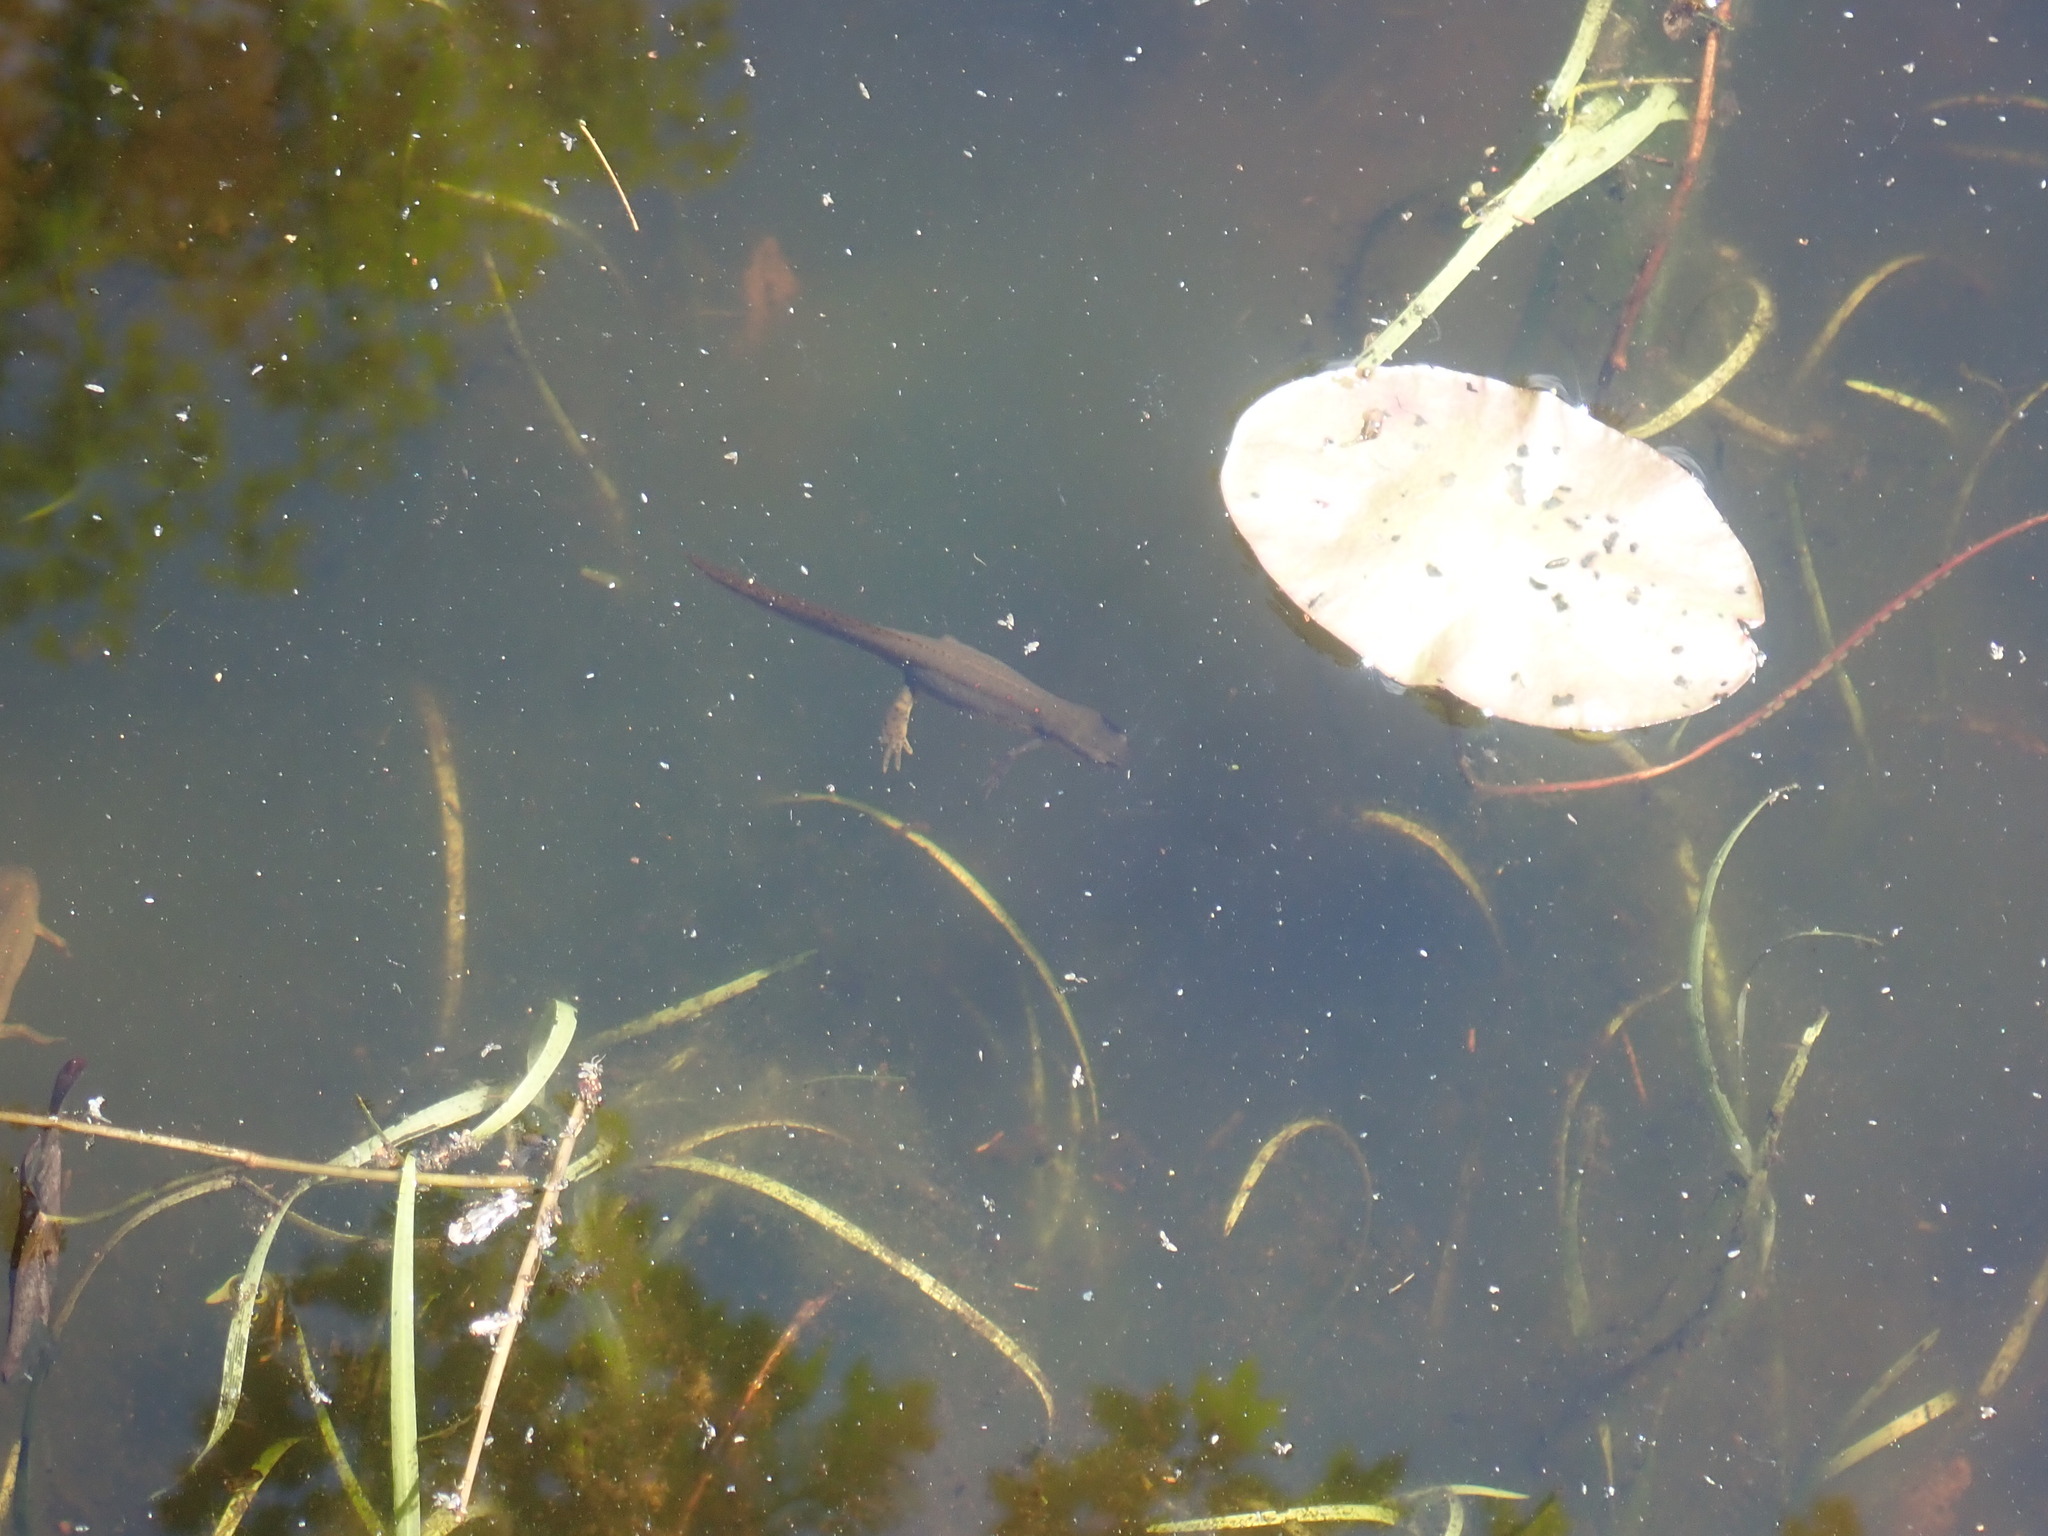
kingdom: Animalia
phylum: Chordata
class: Amphibia
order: Caudata
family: Salamandridae
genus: Notophthalmus
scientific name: Notophthalmus viridescens
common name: Eastern newt
